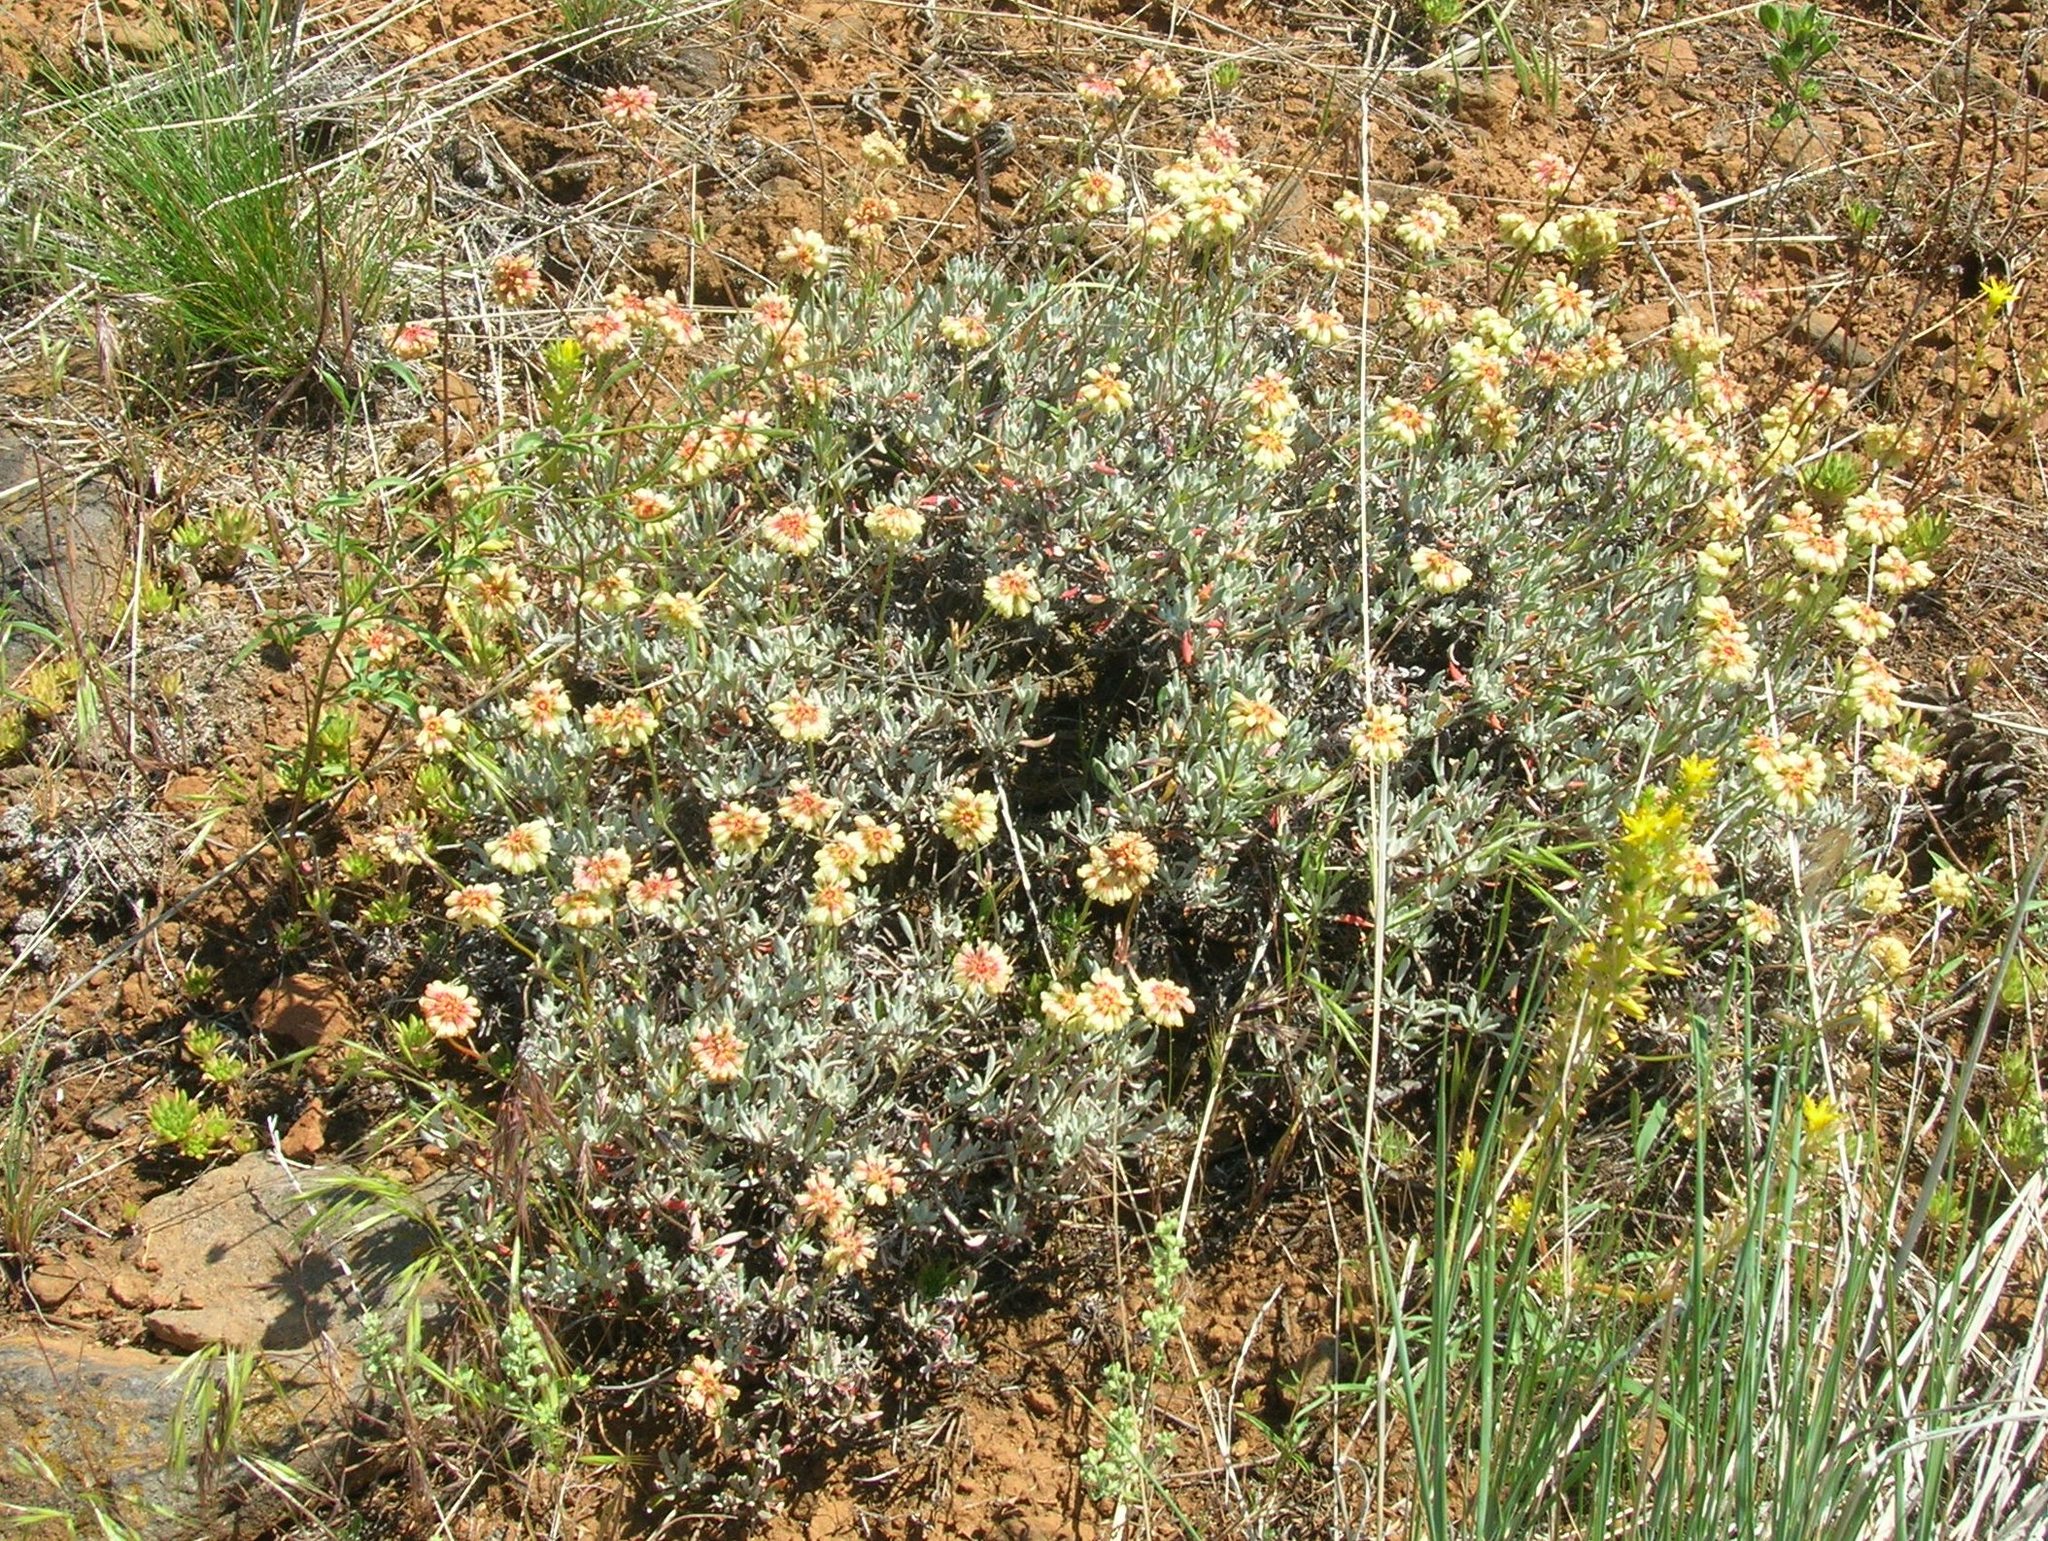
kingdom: Plantae
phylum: Tracheophyta
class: Magnoliopsida
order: Caryophyllales
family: Polygonaceae
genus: Eriogonum
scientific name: Eriogonum douglasii
